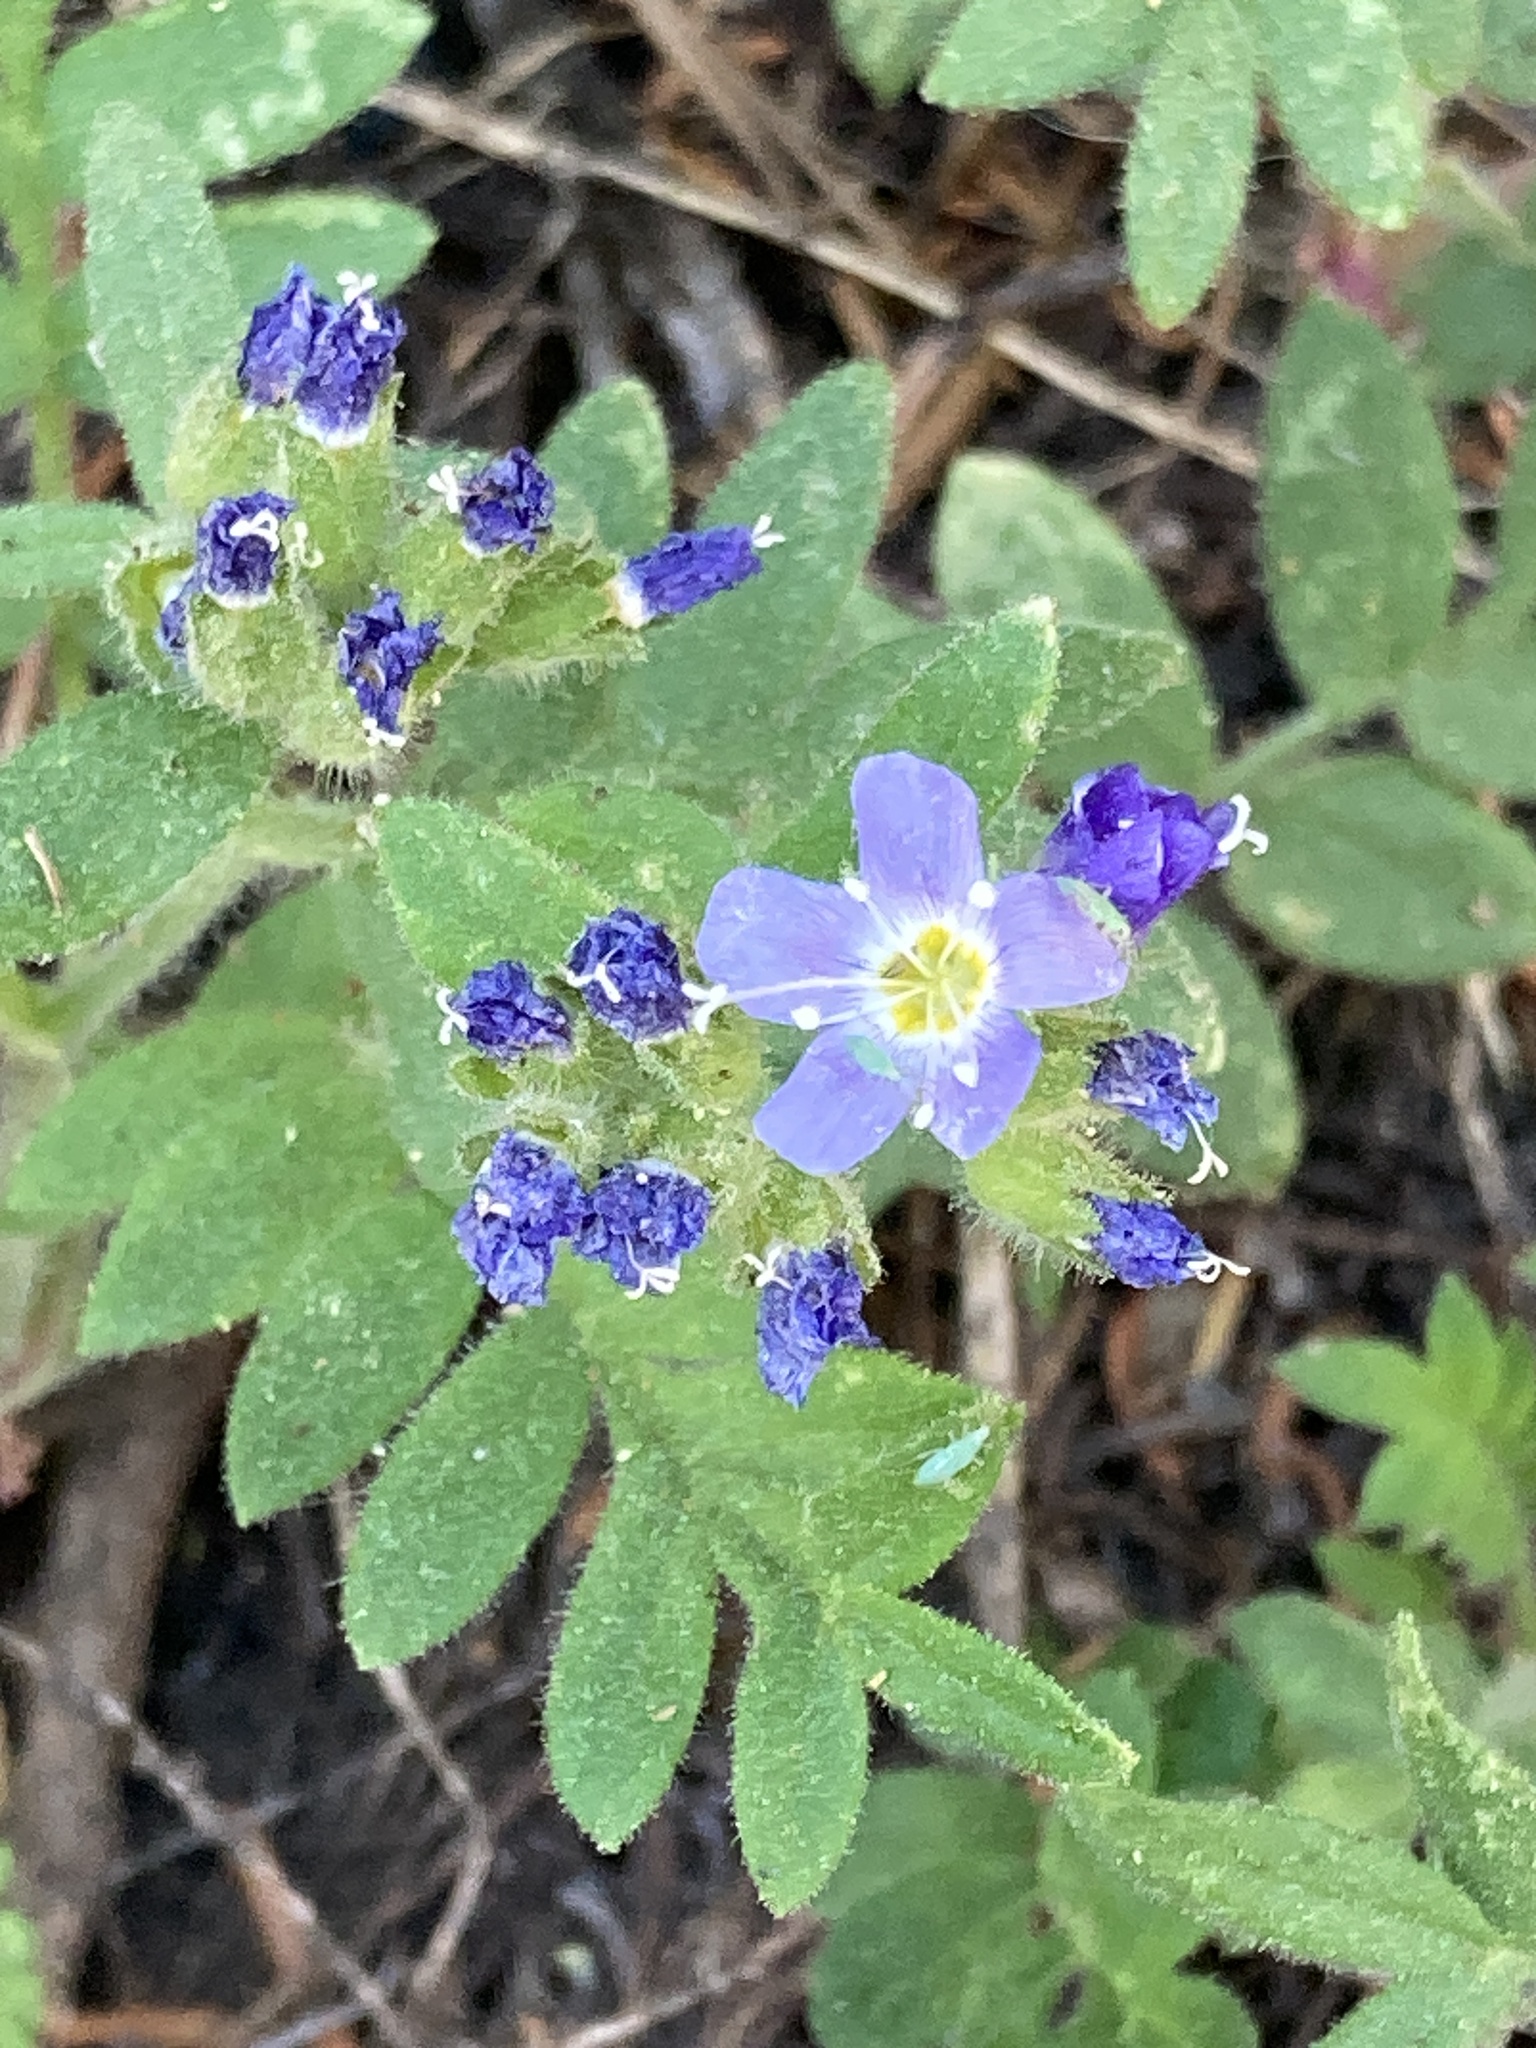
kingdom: Plantae
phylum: Tracheophyta
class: Magnoliopsida
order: Ericales
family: Polemoniaceae
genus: Polemonium
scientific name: Polemonium californicum
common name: California jacob's ladder
